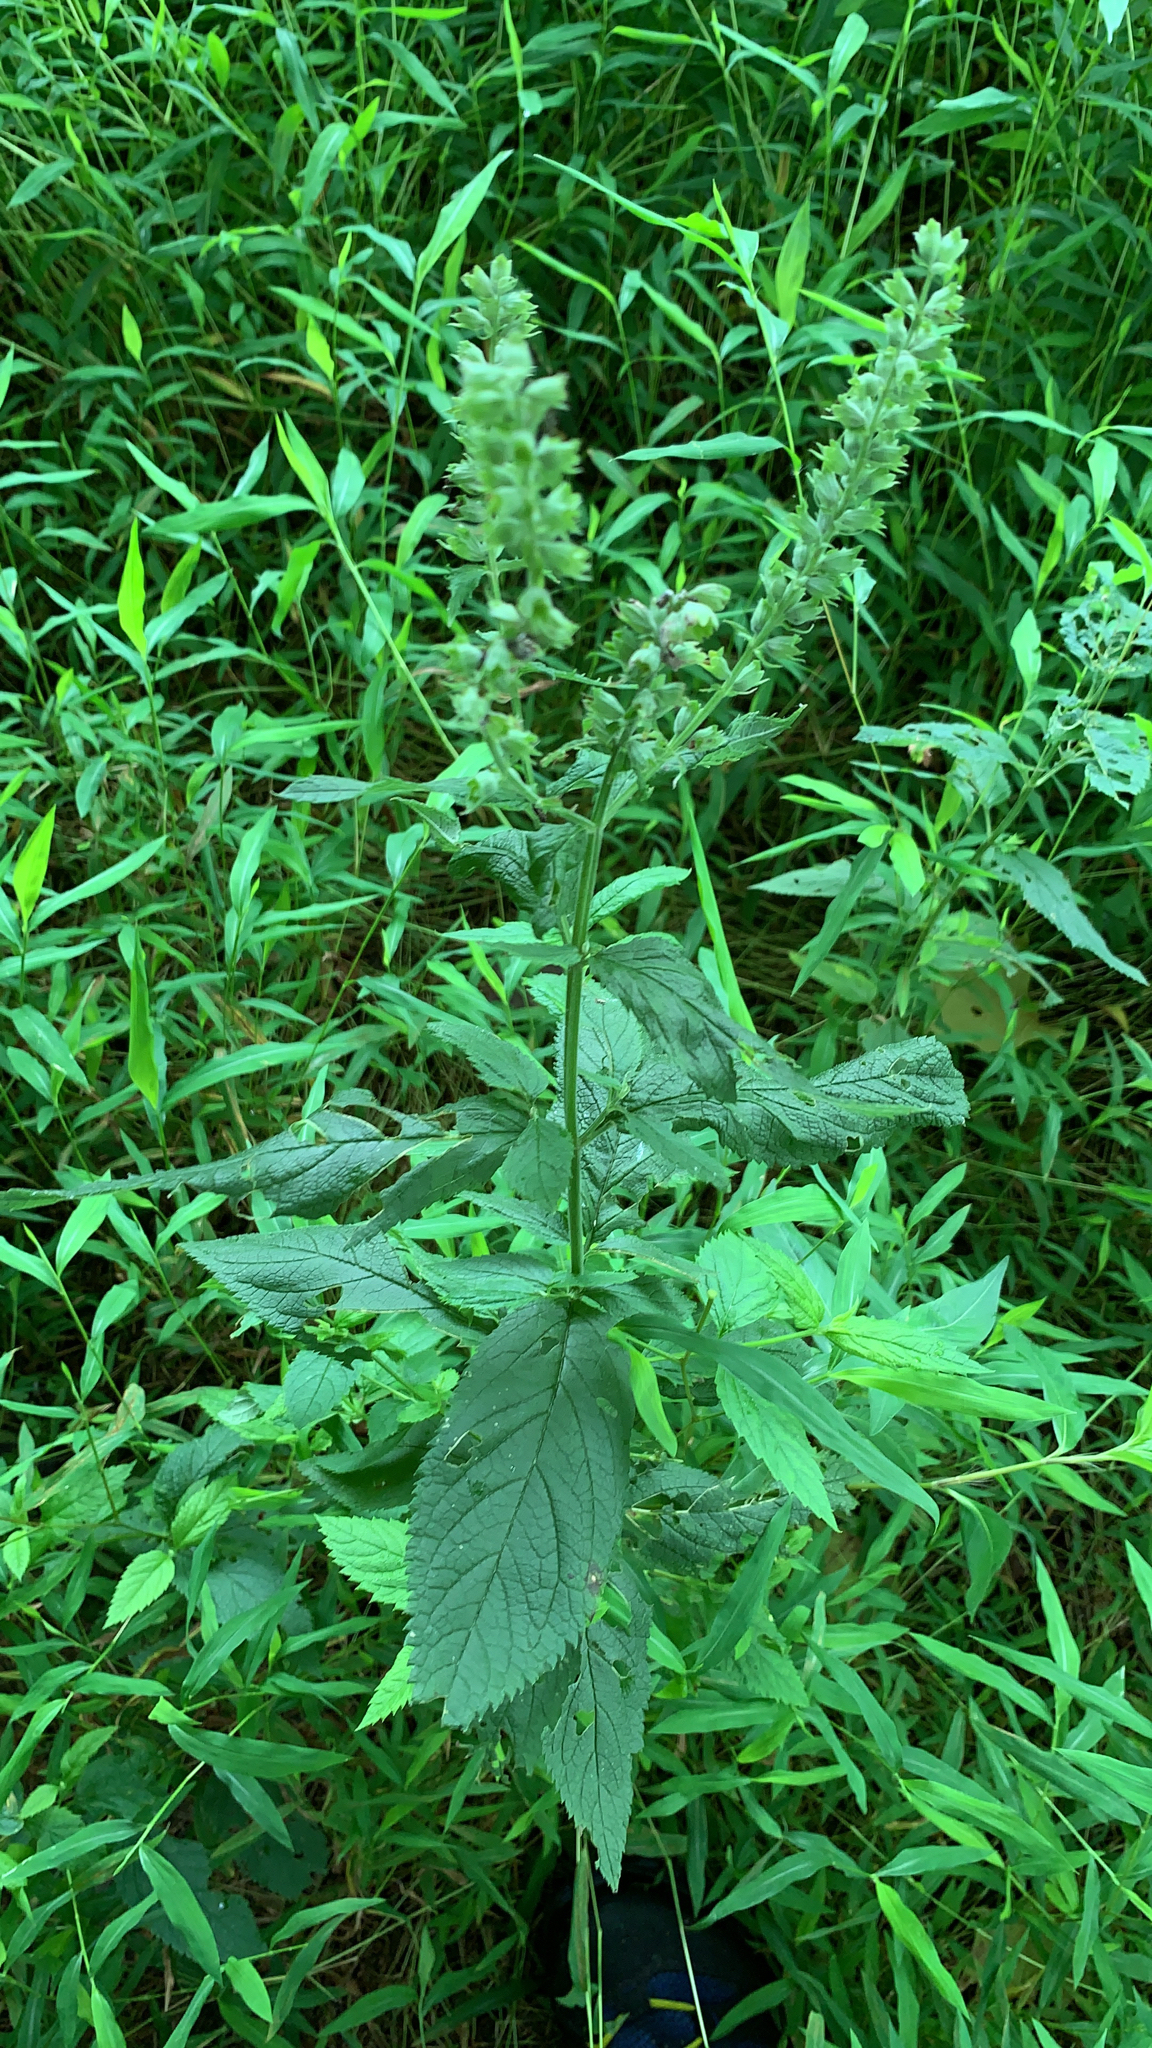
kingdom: Plantae
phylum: Tracheophyta
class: Magnoliopsida
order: Lamiales
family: Lamiaceae
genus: Teucrium
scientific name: Teucrium canadense
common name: American germander
